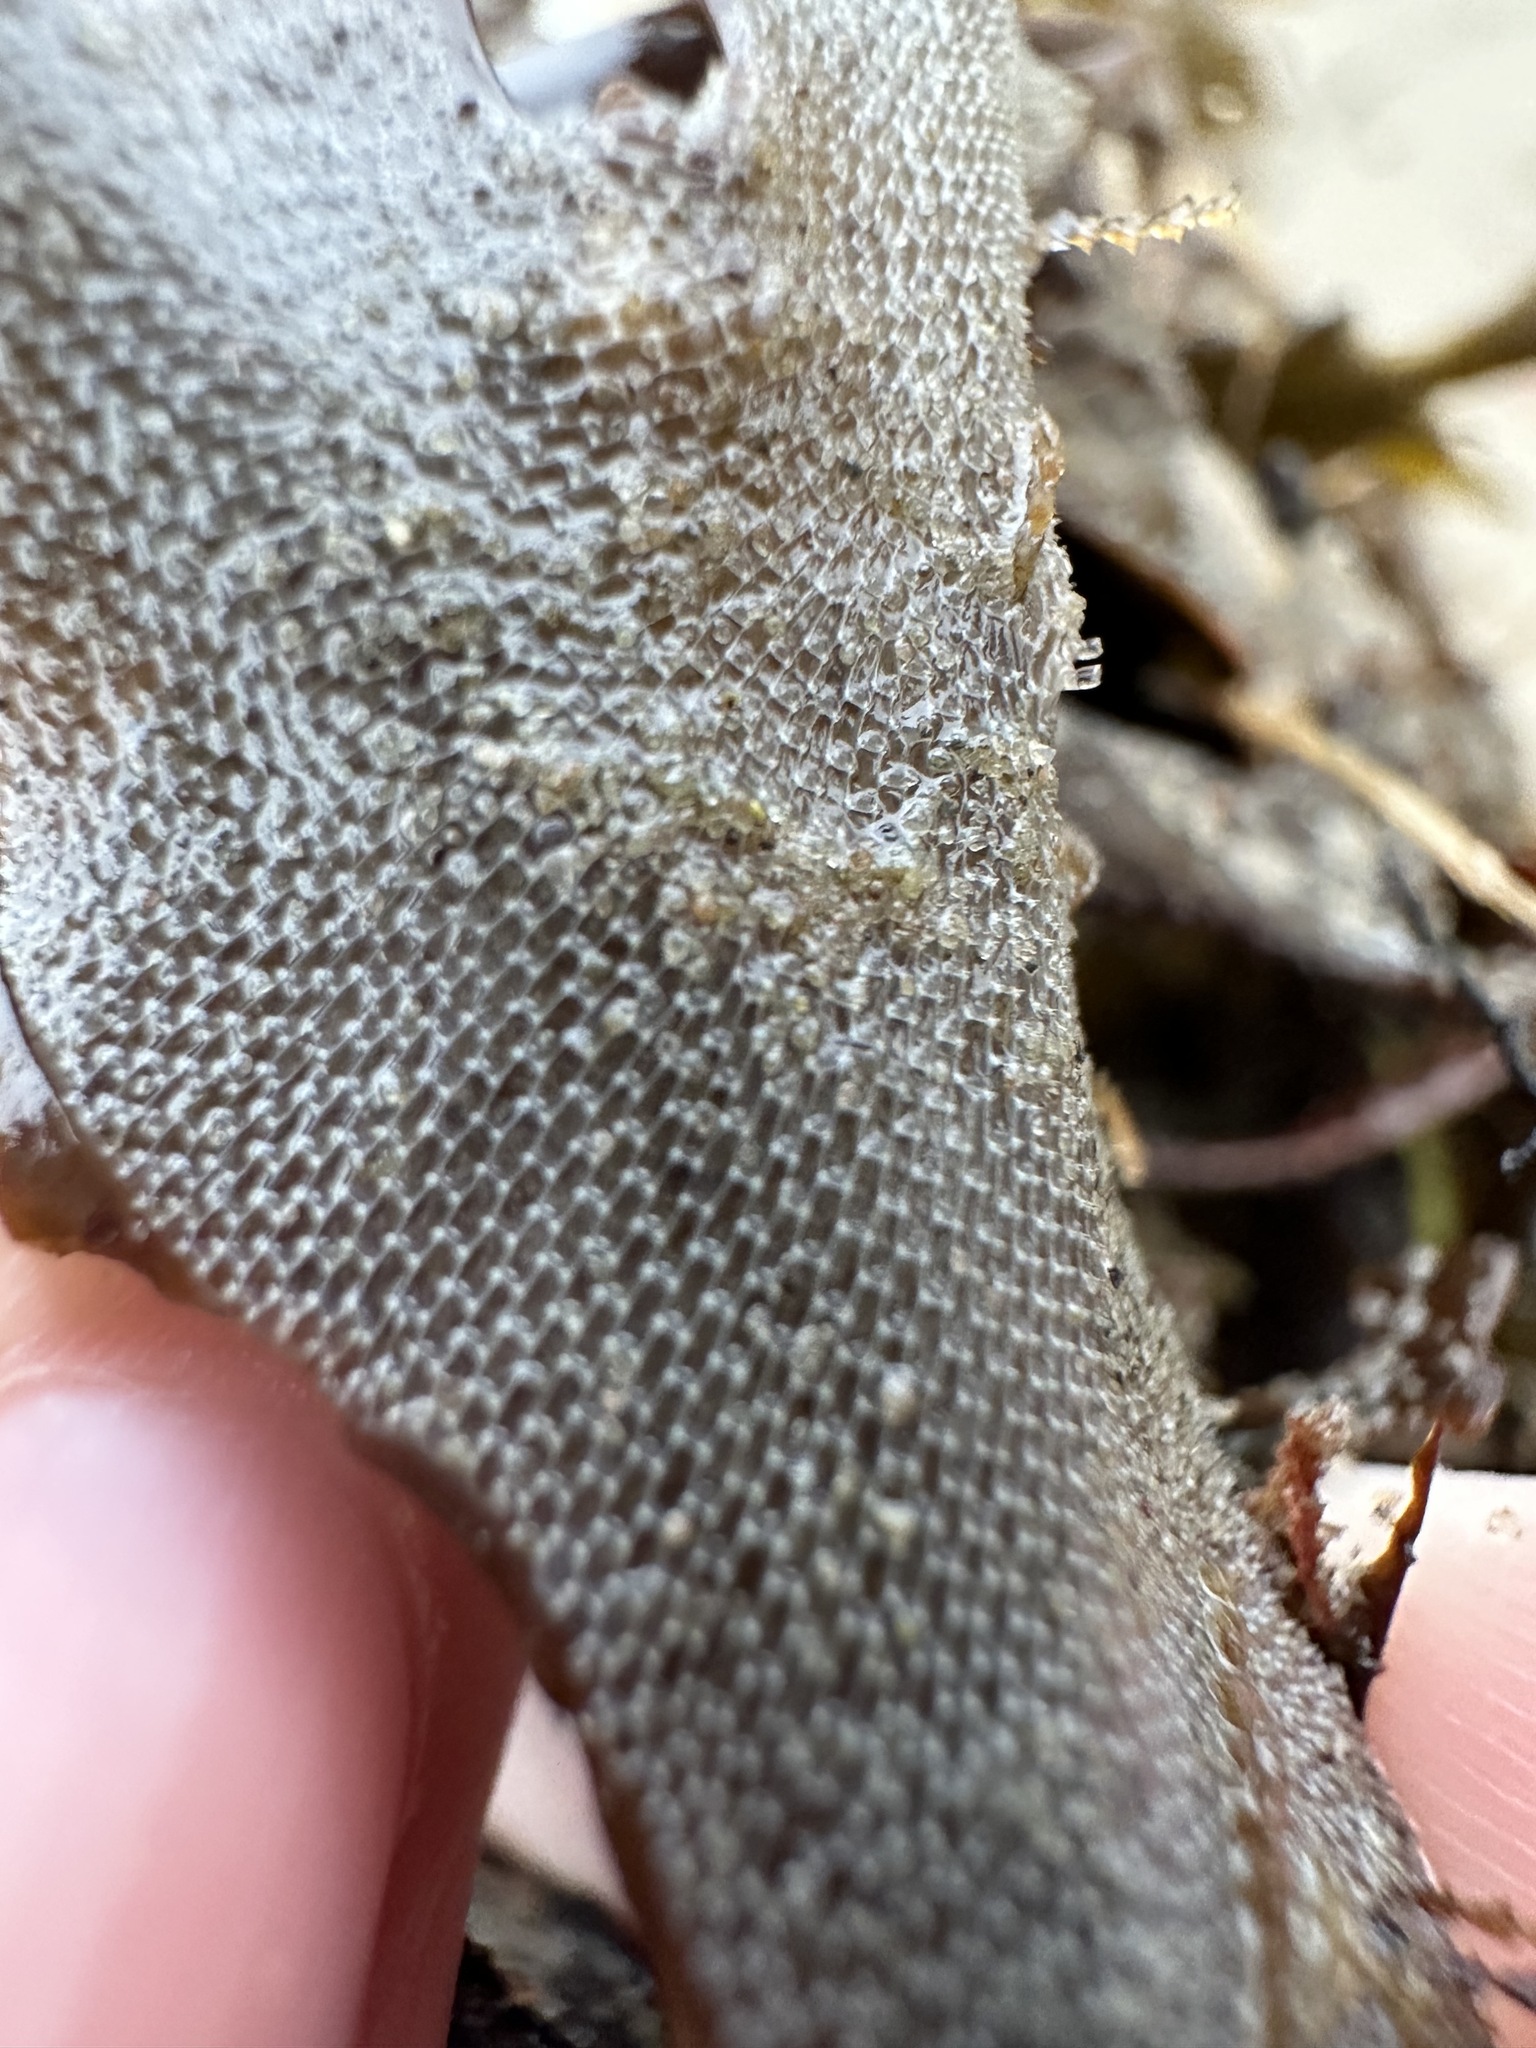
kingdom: Animalia
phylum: Bryozoa
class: Gymnolaemata
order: Cheilostomatida
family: Membraniporidae
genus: Membranipora
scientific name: Membranipora membranacea
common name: Sea mat
